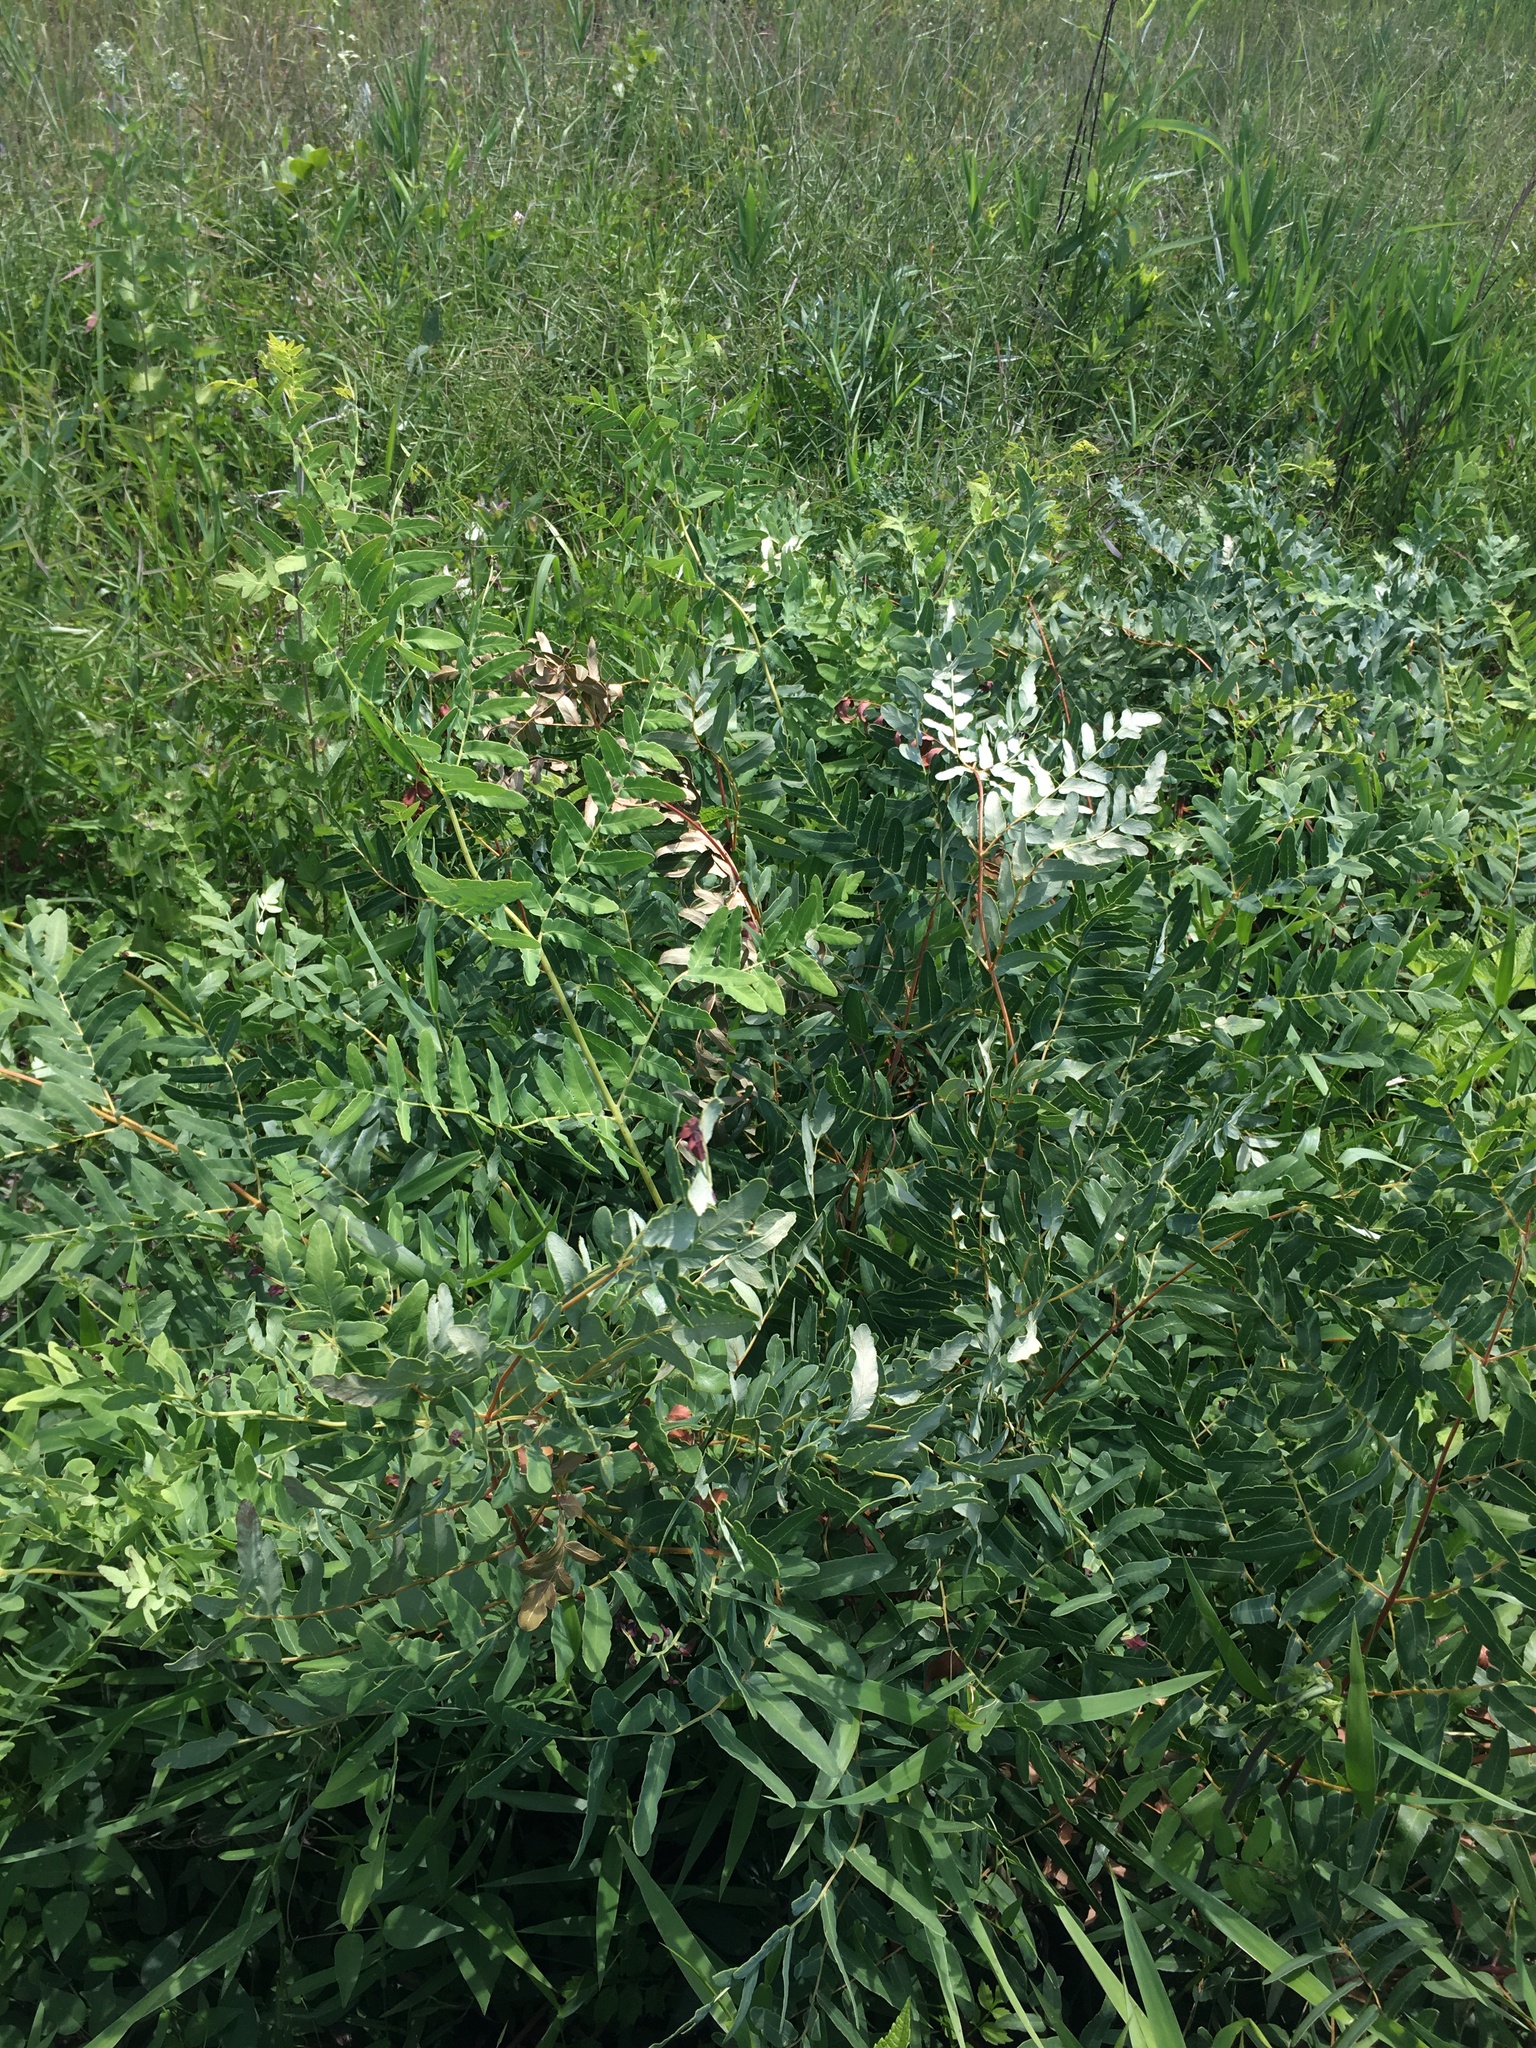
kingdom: Plantae
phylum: Tracheophyta
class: Polypodiopsida
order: Osmundales
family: Osmundaceae
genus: Osmunda
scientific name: Osmunda spectabilis
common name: American royal fern
